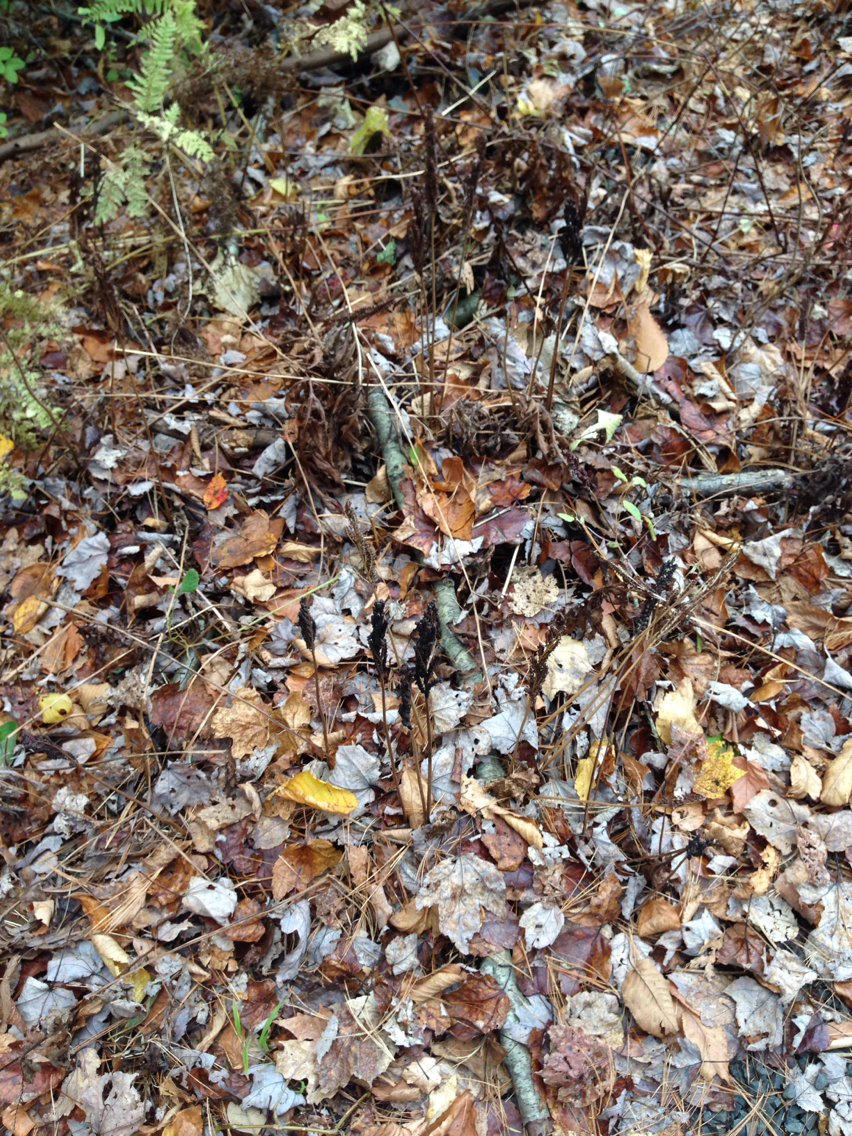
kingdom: Plantae
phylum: Tracheophyta
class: Polypodiopsida
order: Polypodiales
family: Onocleaceae
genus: Onoclea
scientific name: Onoclea sensibilis
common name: Sensitive fern
